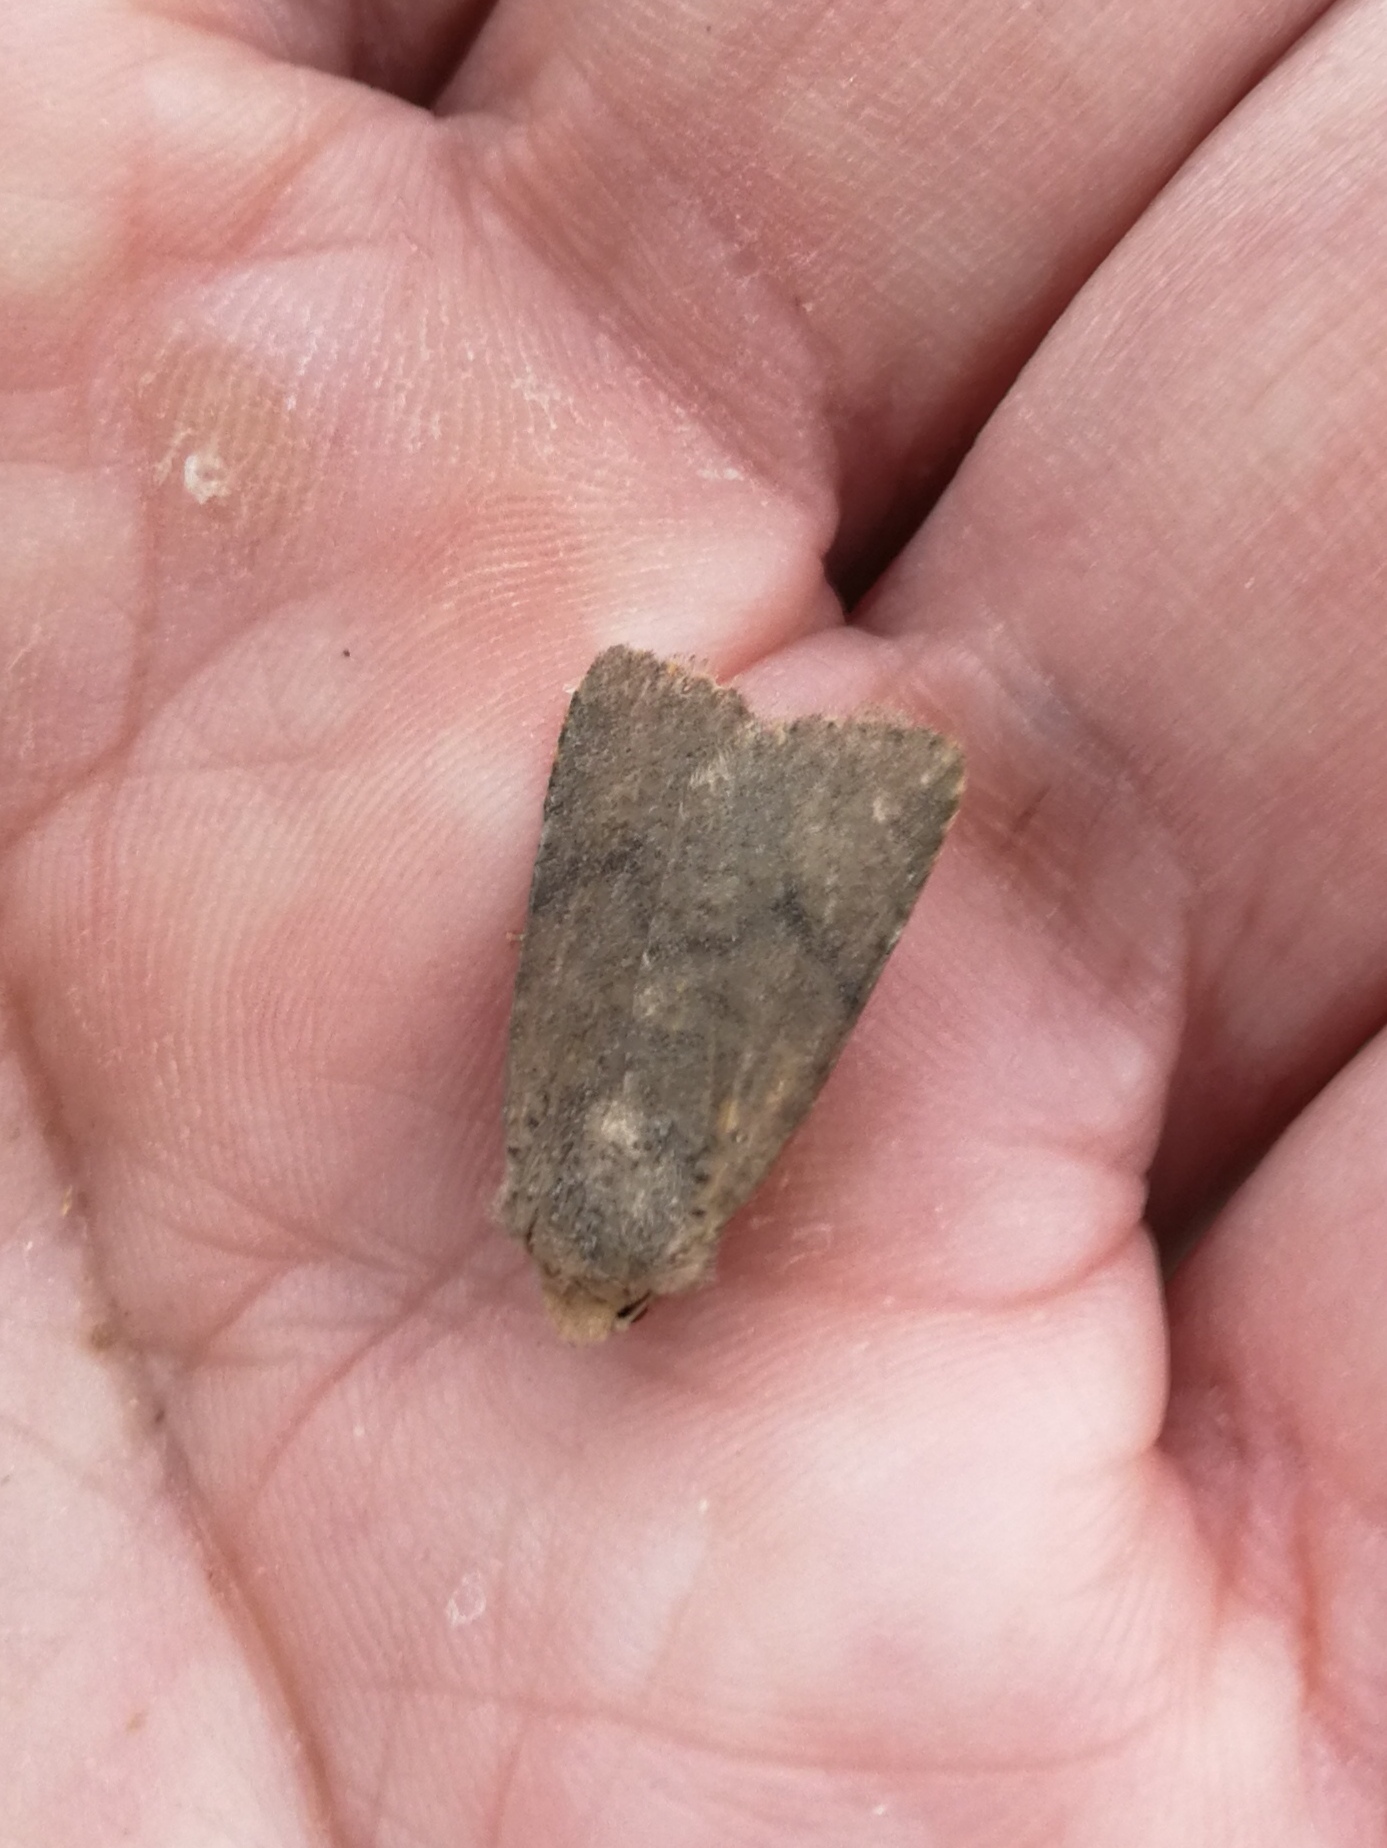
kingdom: Animalia
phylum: Arthropoda
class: Insecta
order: Lepidoptera
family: Noctuidae
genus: Conistra
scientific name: Conistra staudingeri
